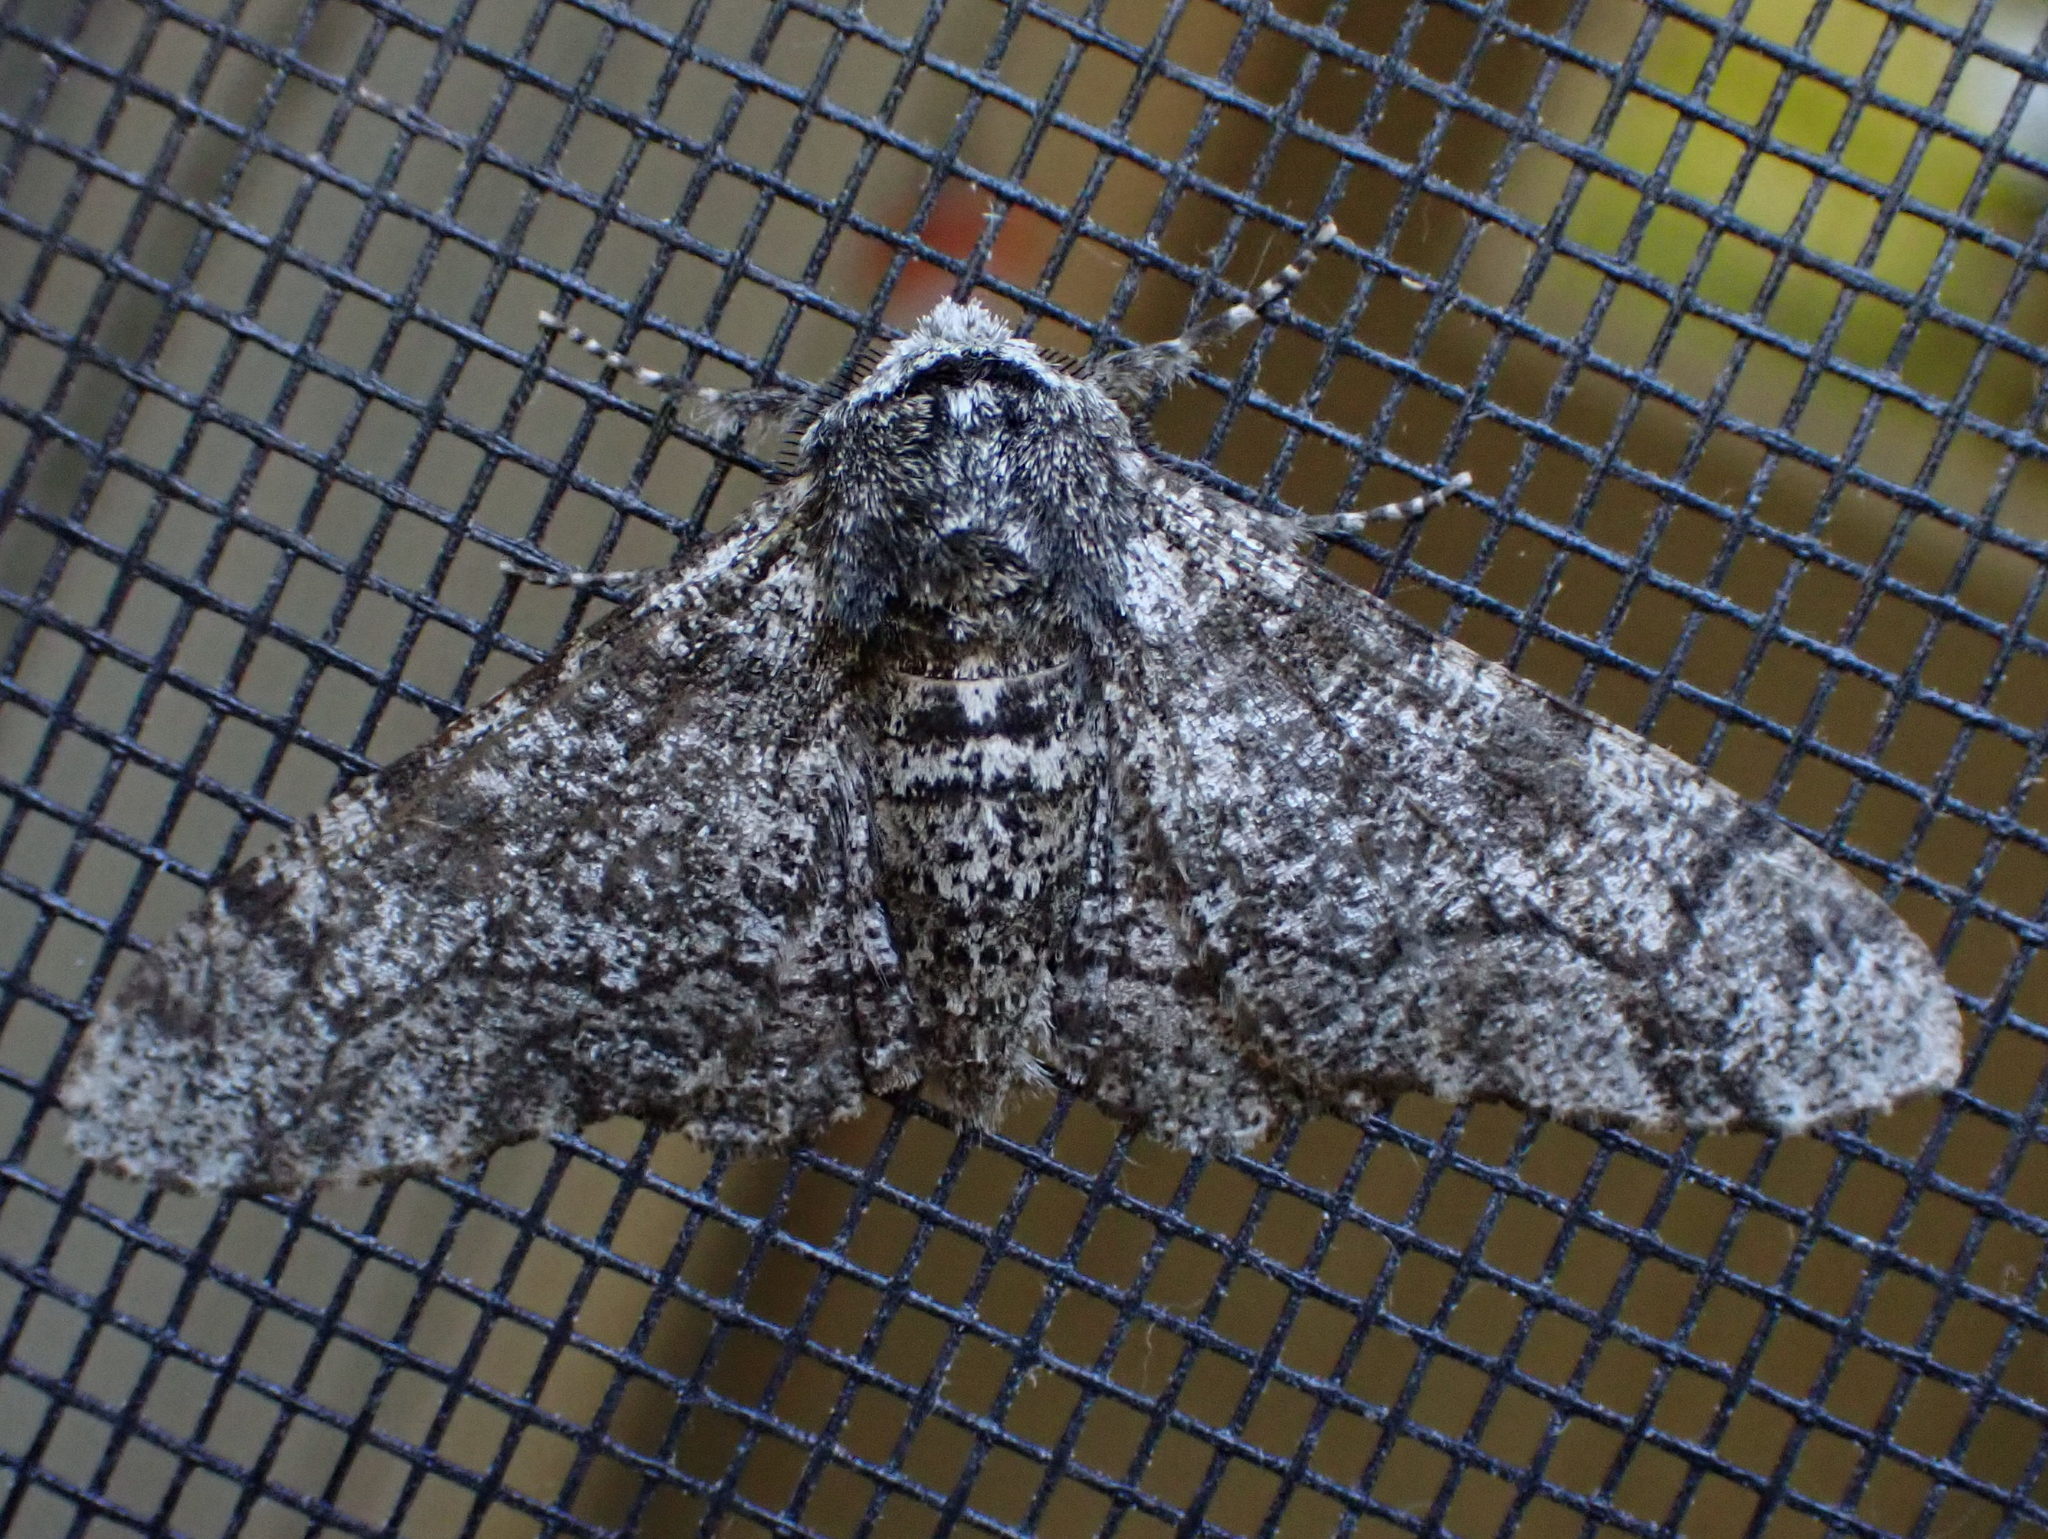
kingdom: Animalia
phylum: Arthropoda
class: Insecta
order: Lepidoptera
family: Geometridae
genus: Biston
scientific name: Biston betularia
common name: Peppered moth
